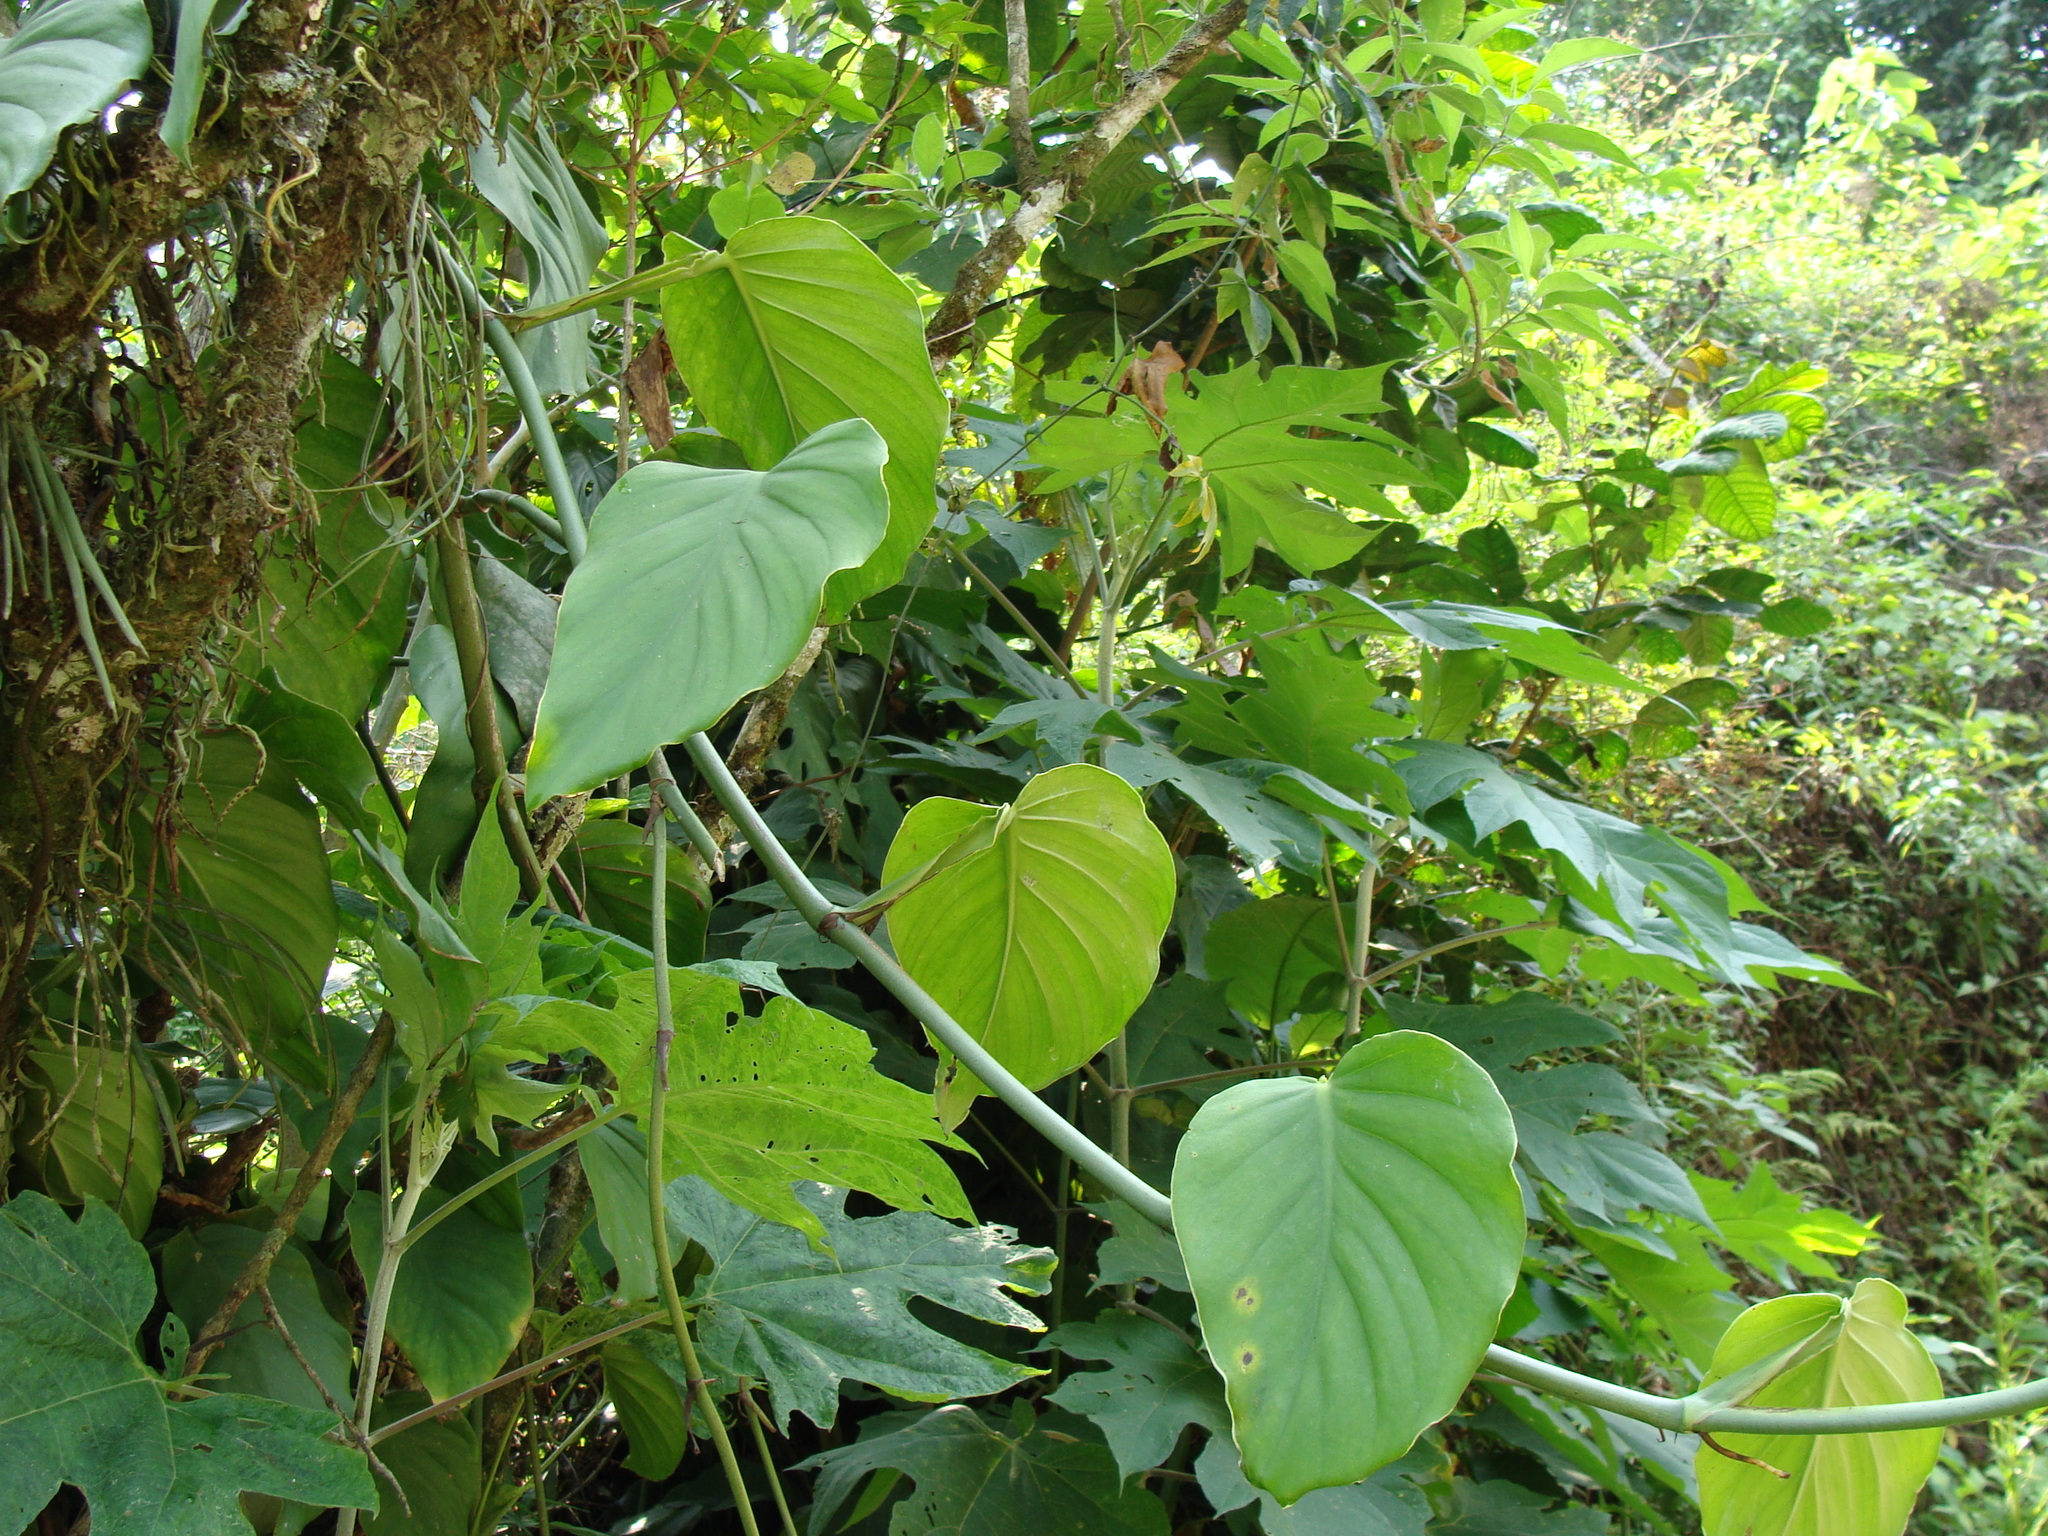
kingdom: Plantae
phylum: Tracheophyta
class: Liliopsida
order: Alismatales
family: Araceae
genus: Monstera
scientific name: Monstera acuminata
